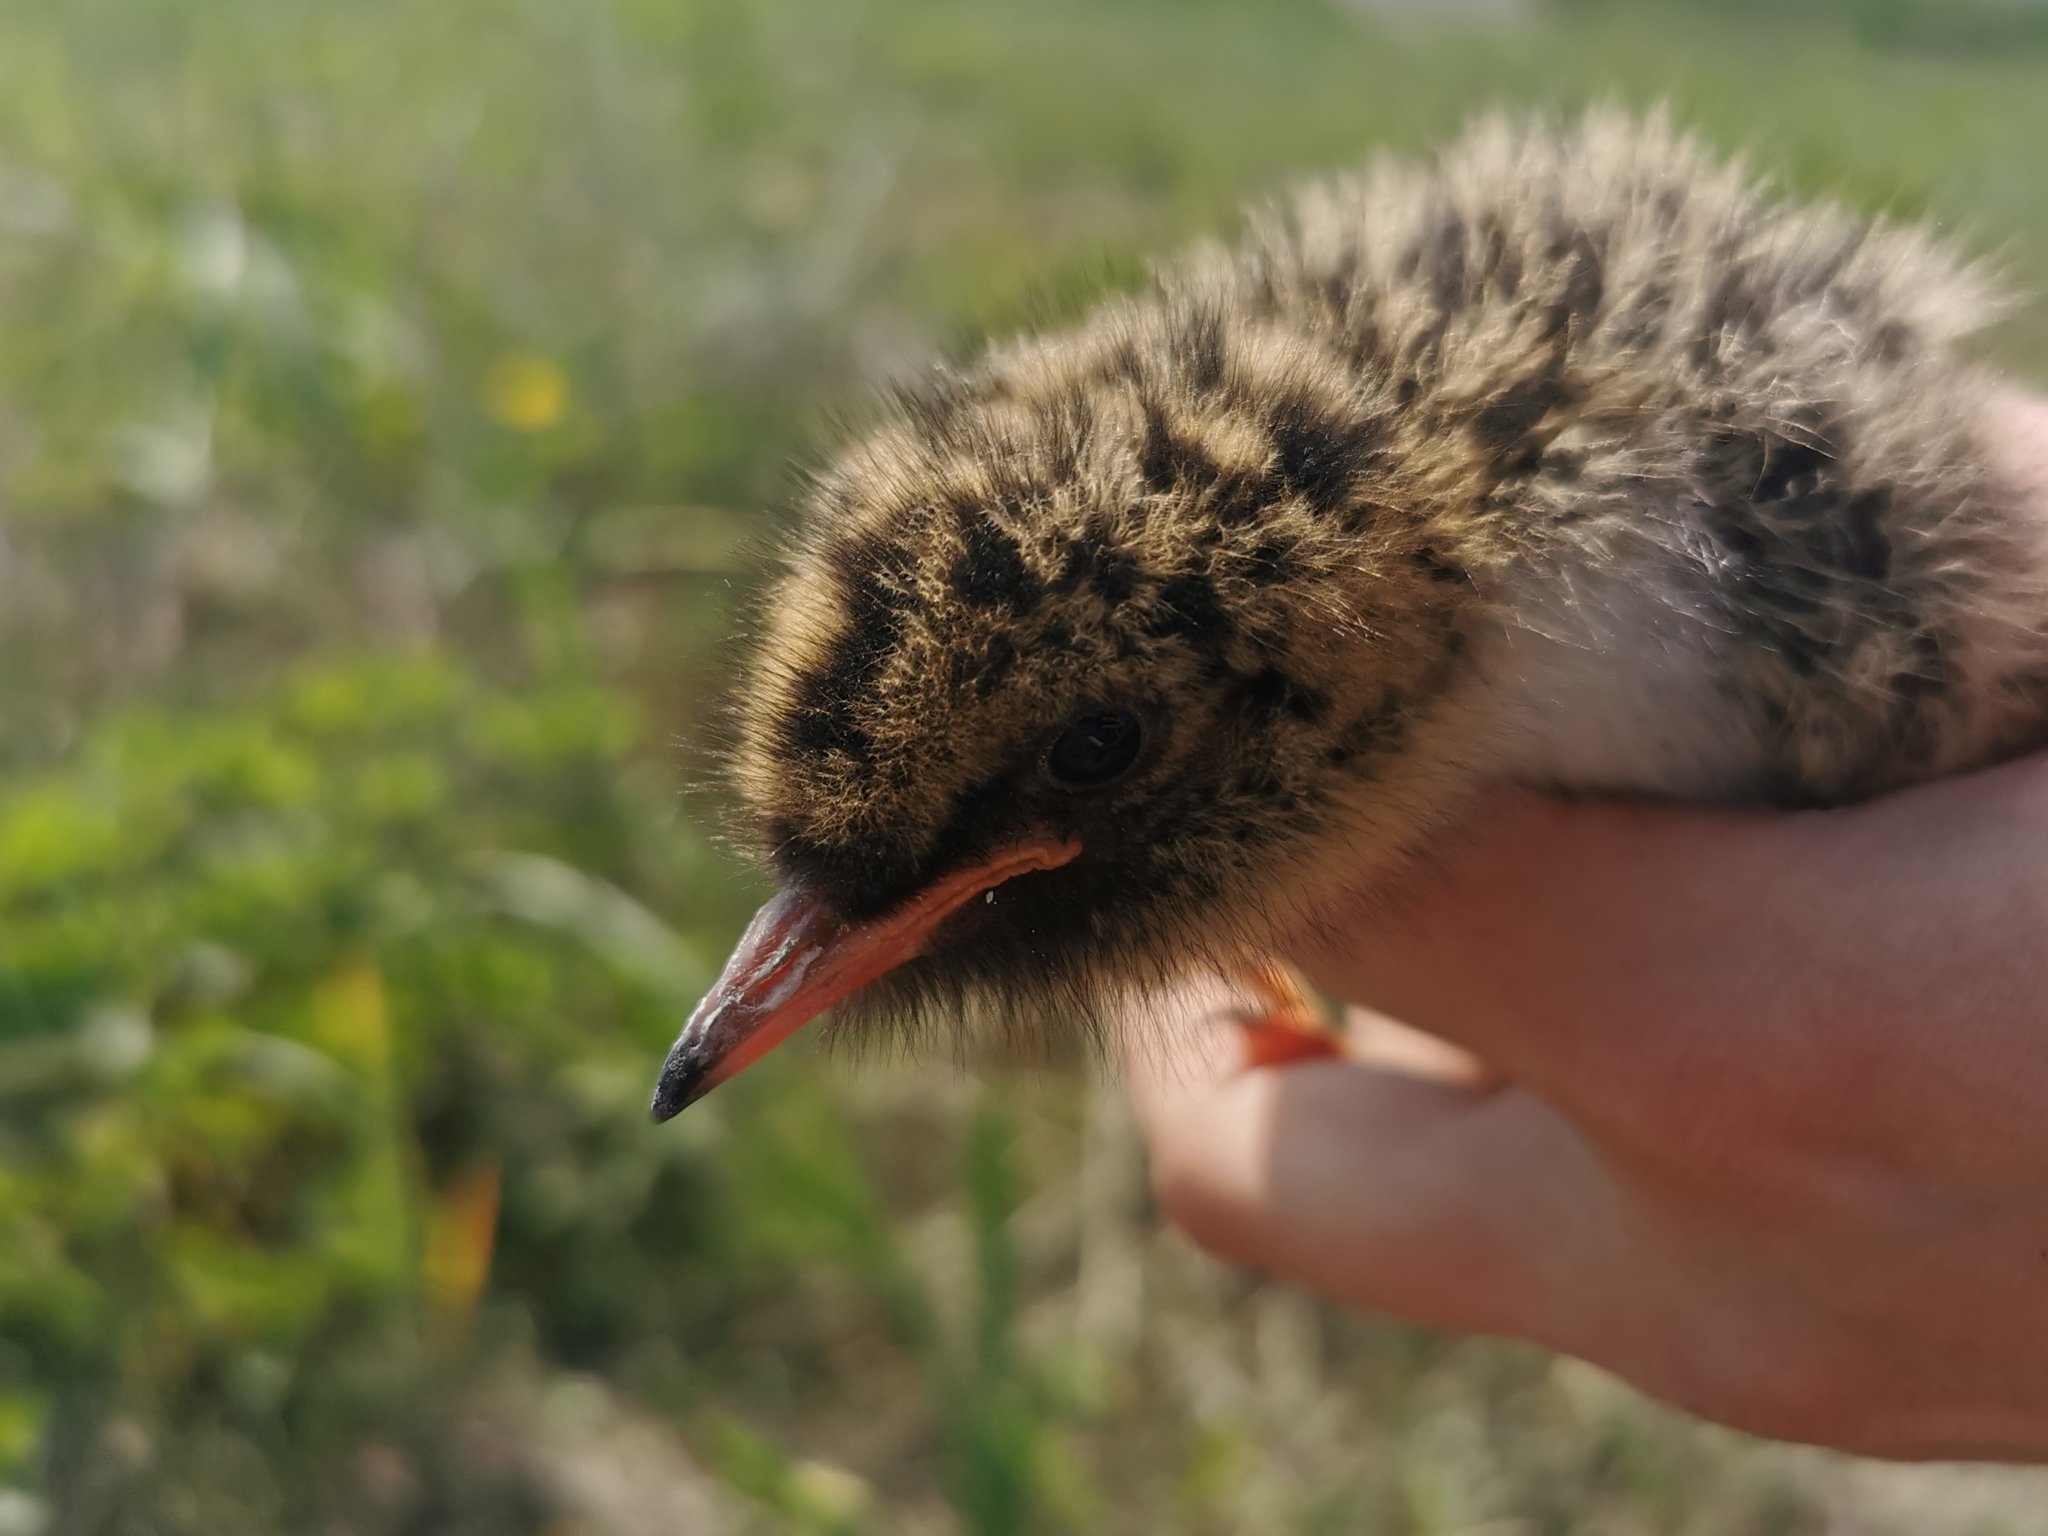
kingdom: Animalia
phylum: Chordata
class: Aves
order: Charadriiformes
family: Laridae
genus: Sterna
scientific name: Sterna hirundo
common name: Common tern
